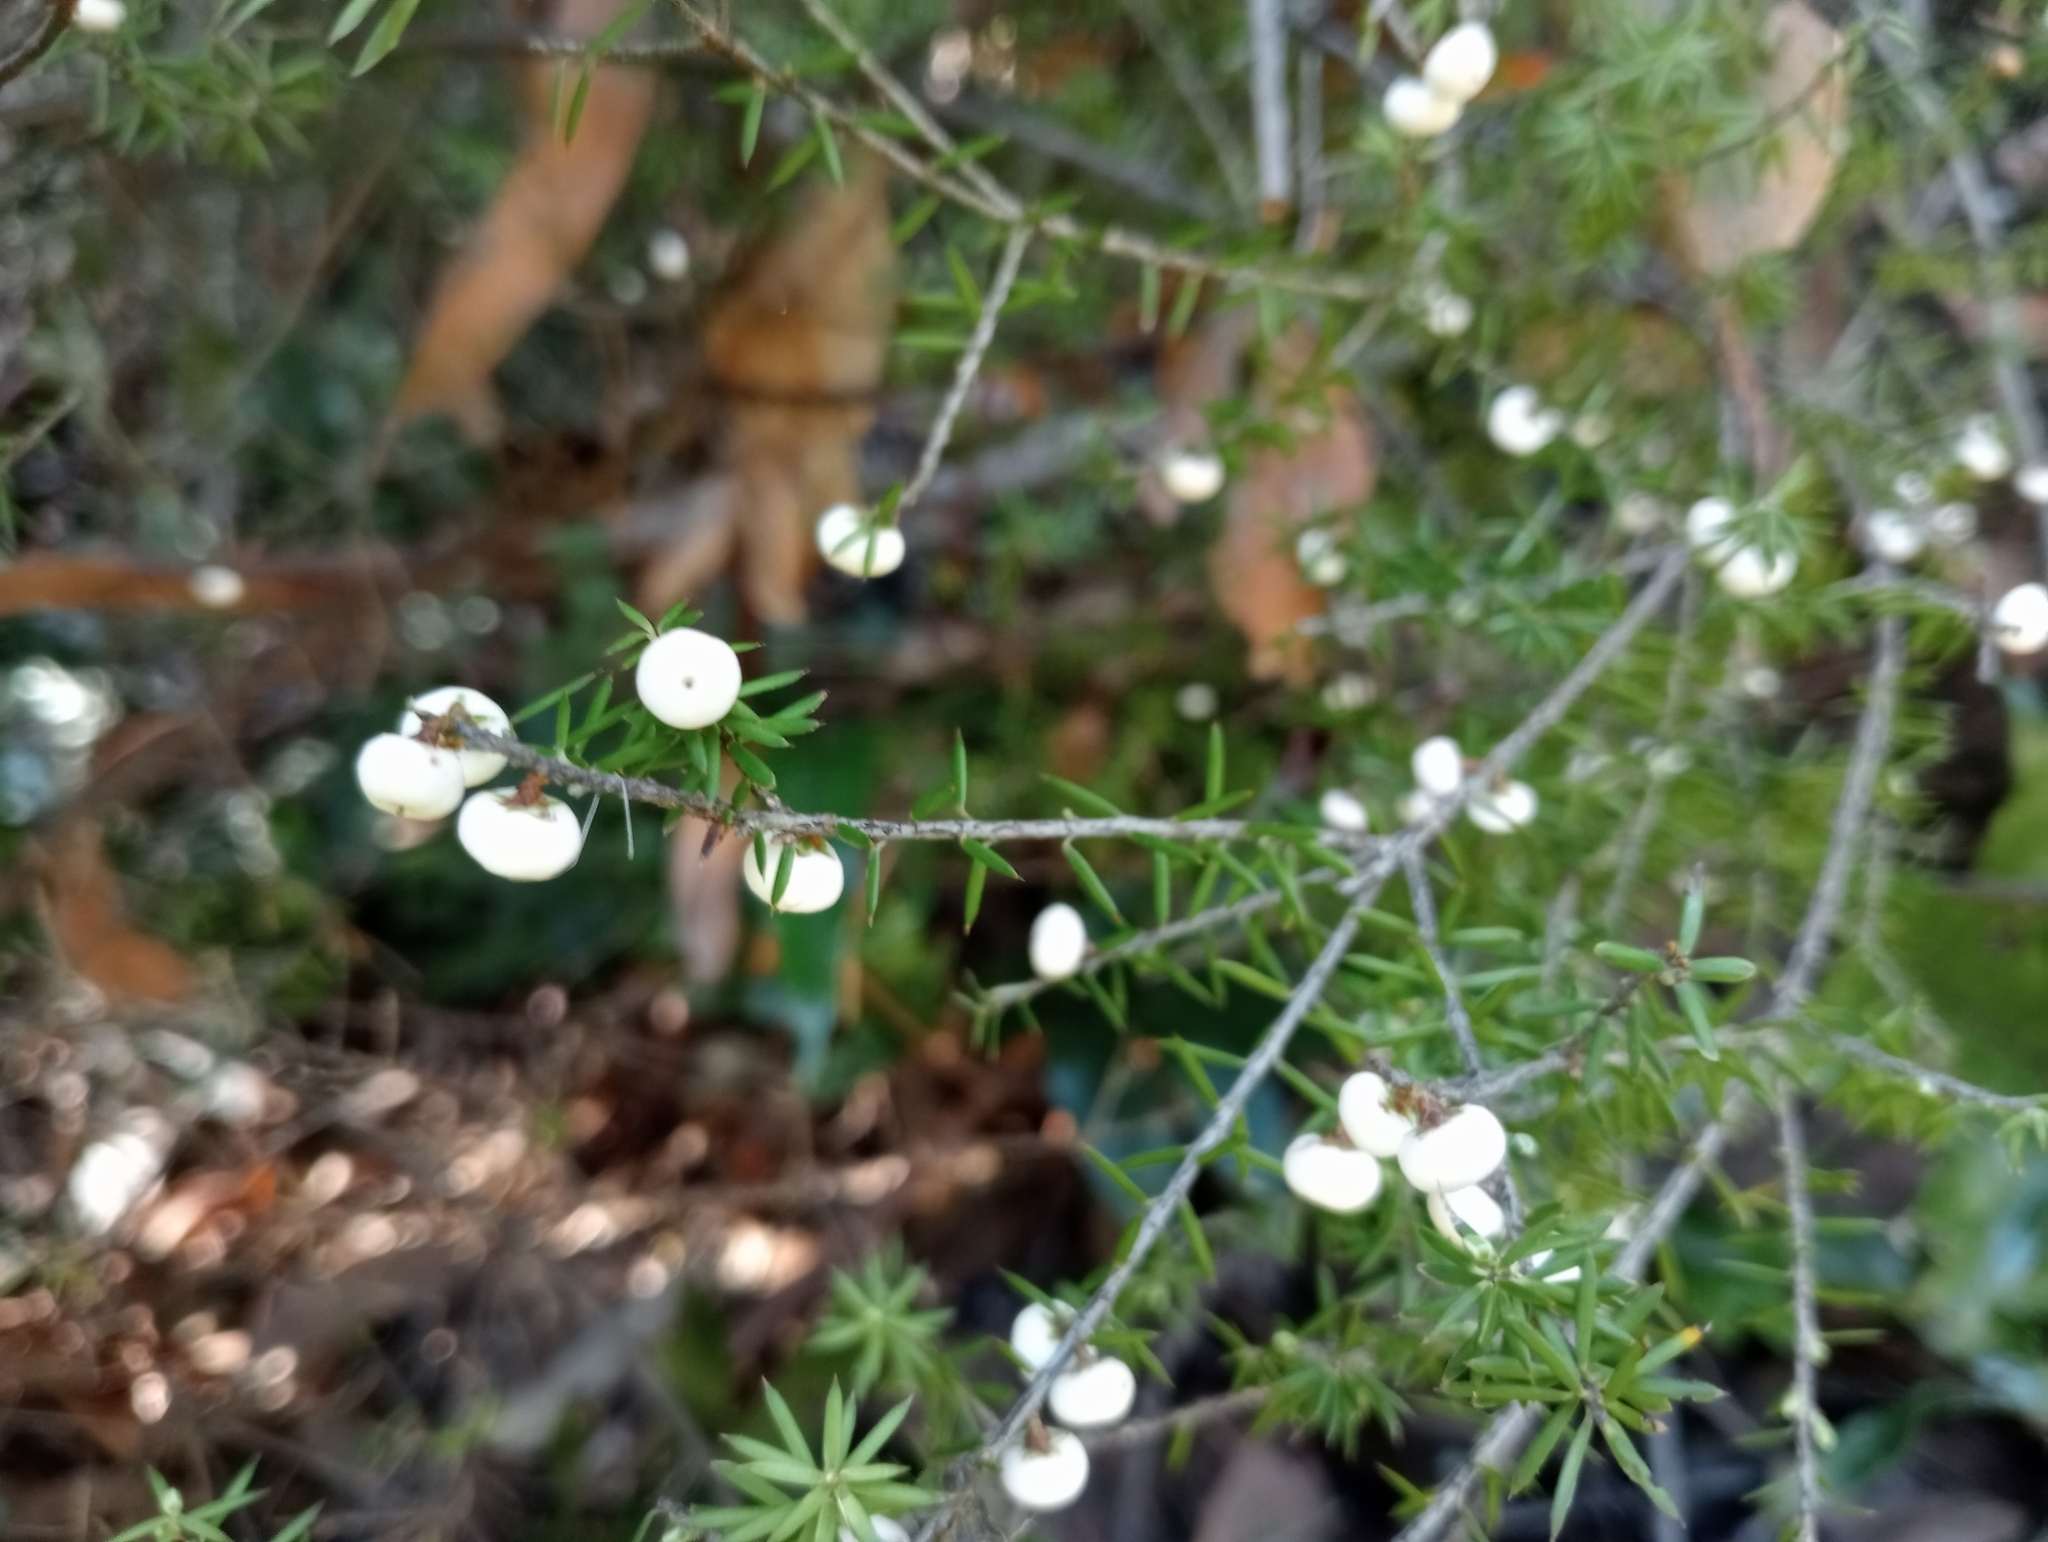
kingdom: Plantae
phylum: Tracheophyta
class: Magnoliopsida
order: Ericales
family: Ericaceae
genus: Leptecophylla
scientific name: Leptecophylla juniperina
